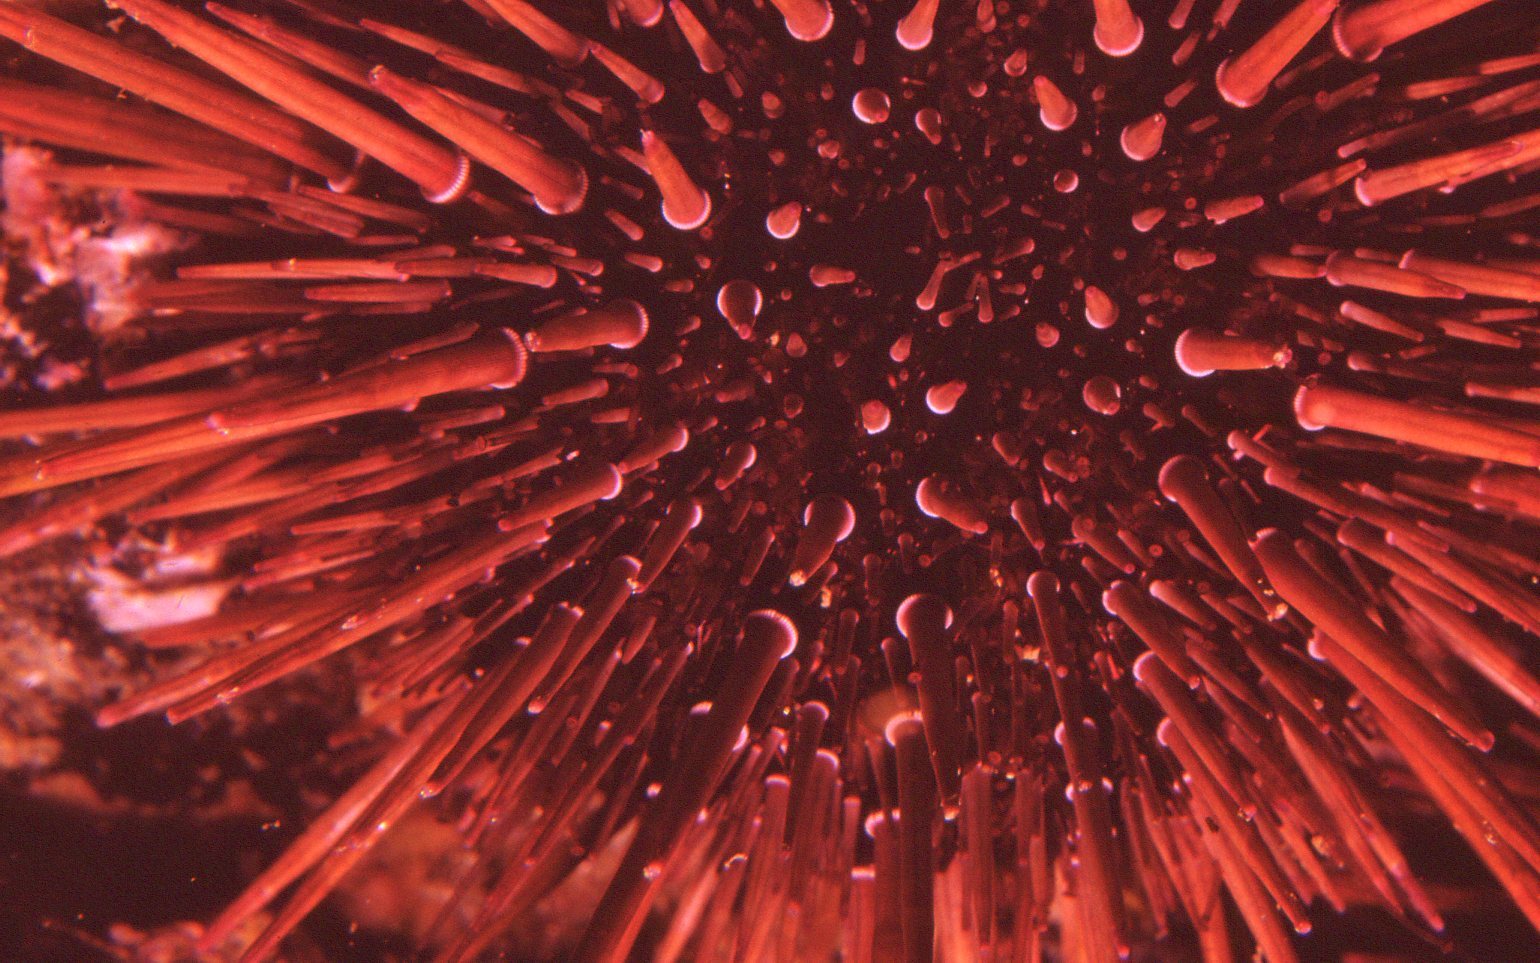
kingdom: Animalia
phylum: Echinodermata
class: Echinoidea
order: Camarodonta
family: Echinometridae
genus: Heliocidaris
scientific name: Heliocidaris tuberculata
